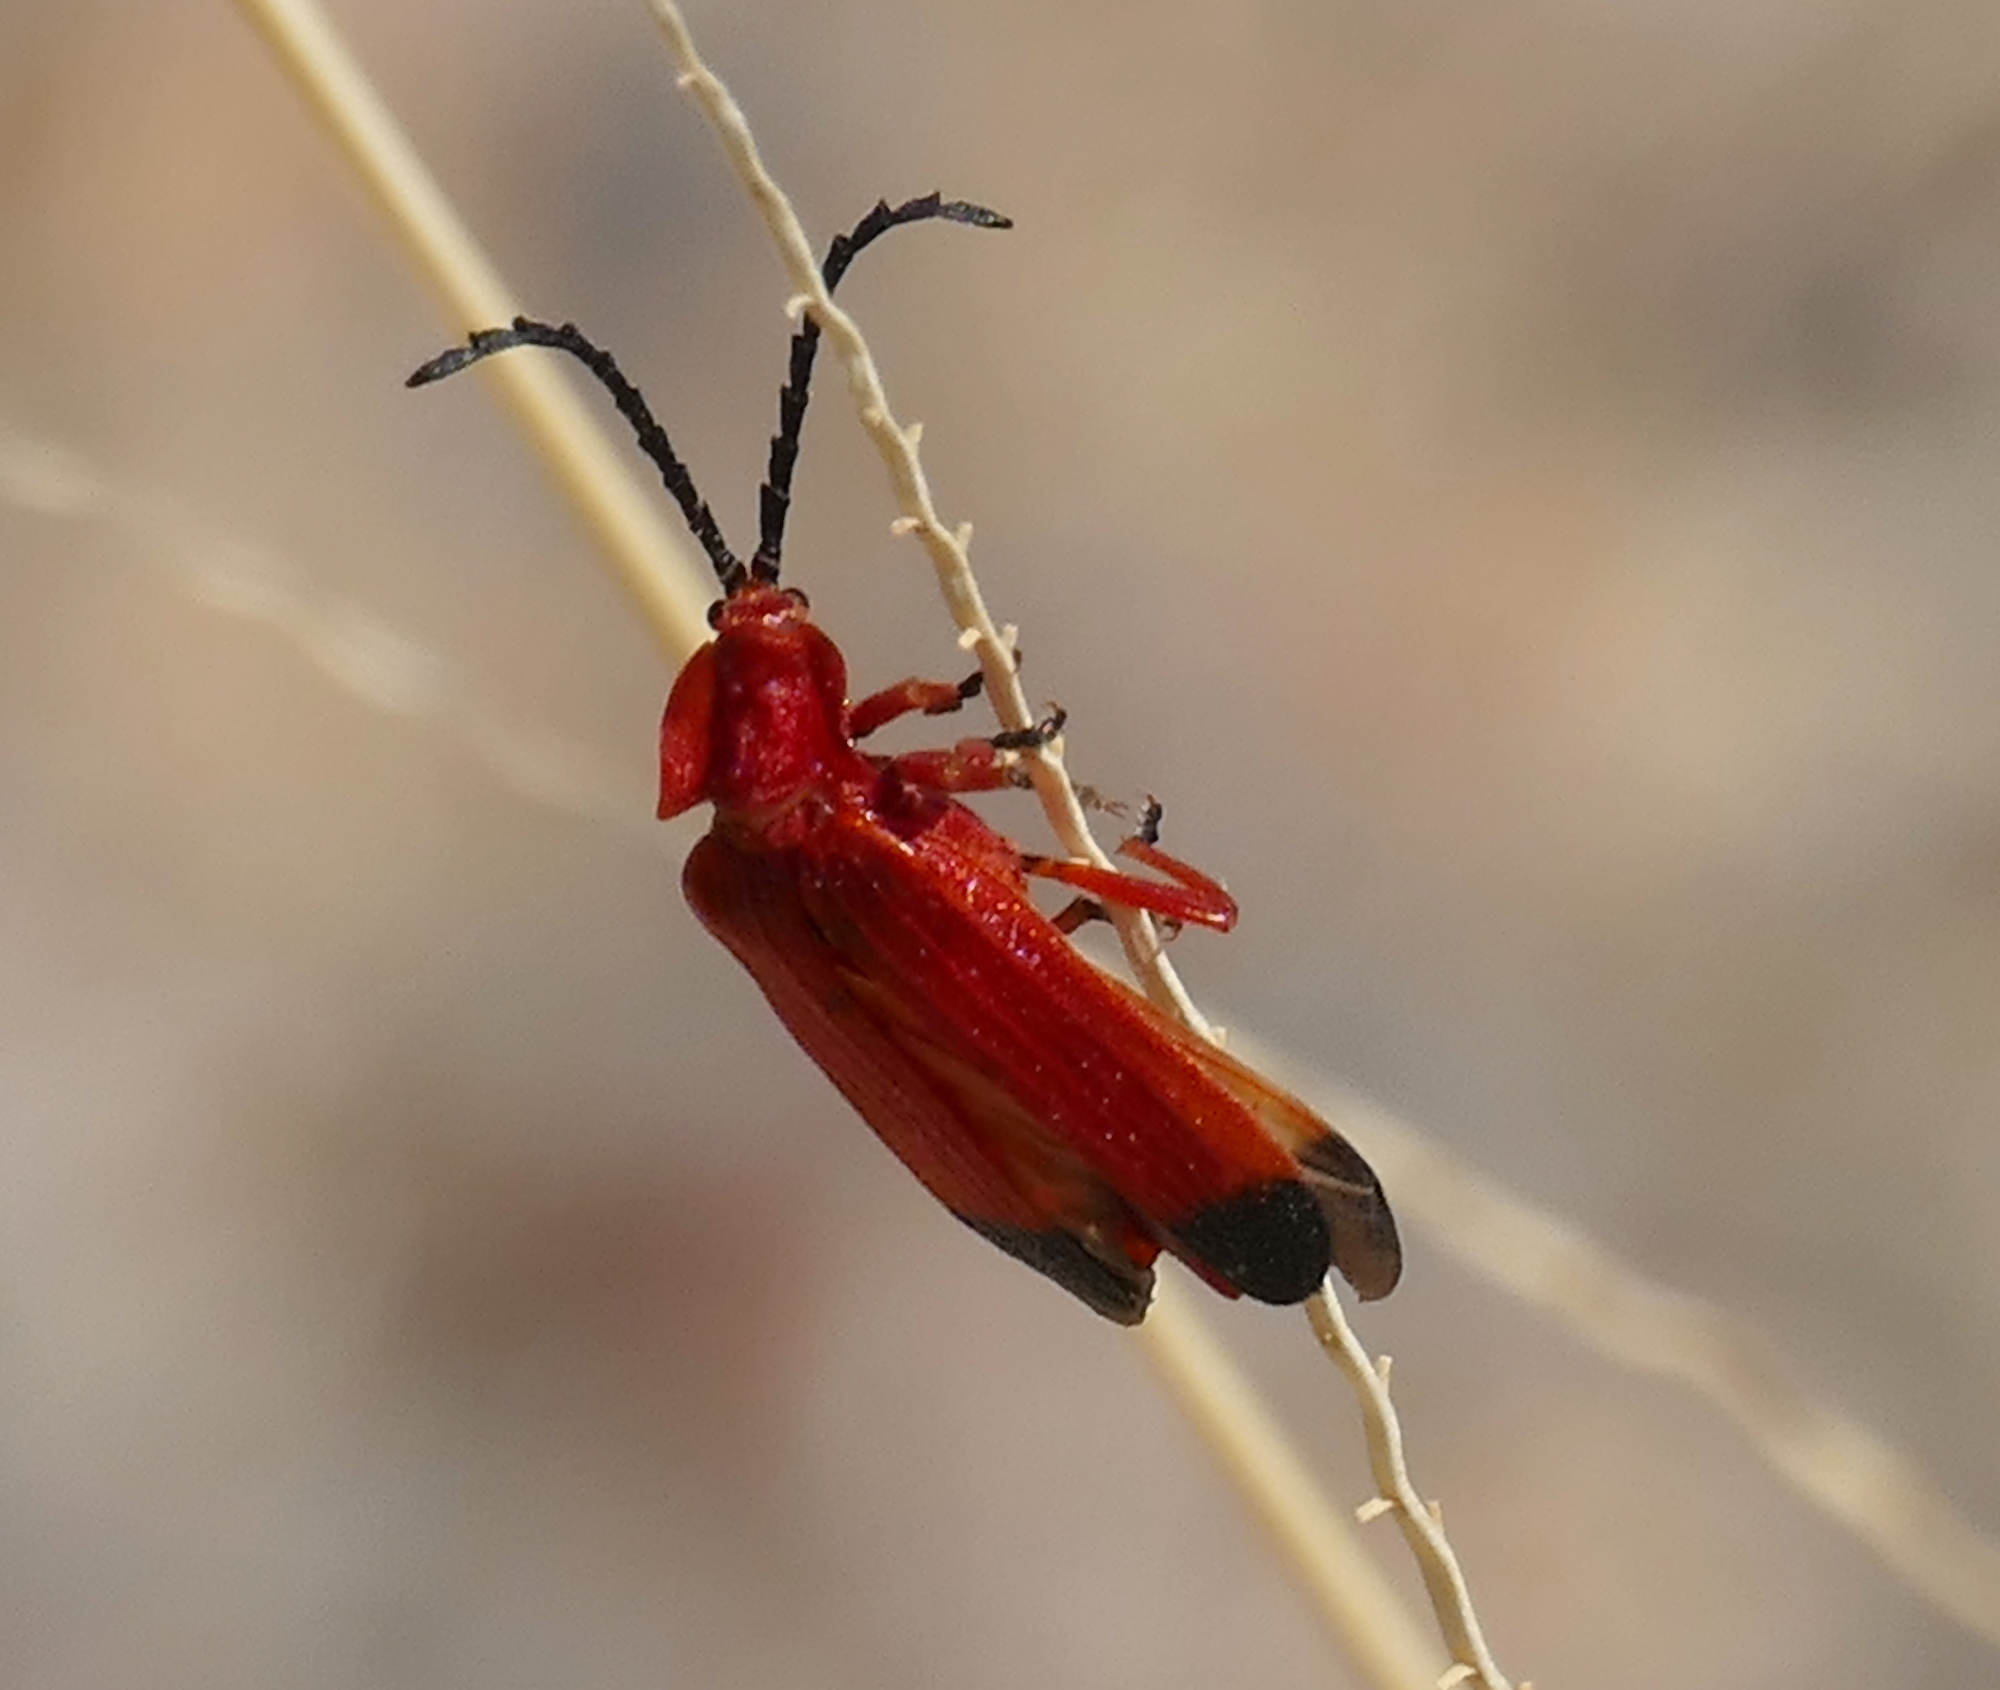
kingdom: Animalia
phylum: Arthropoda
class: Insecta
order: Coleoptera
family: Lycidae
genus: Lycus
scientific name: Lycus sanguineus
